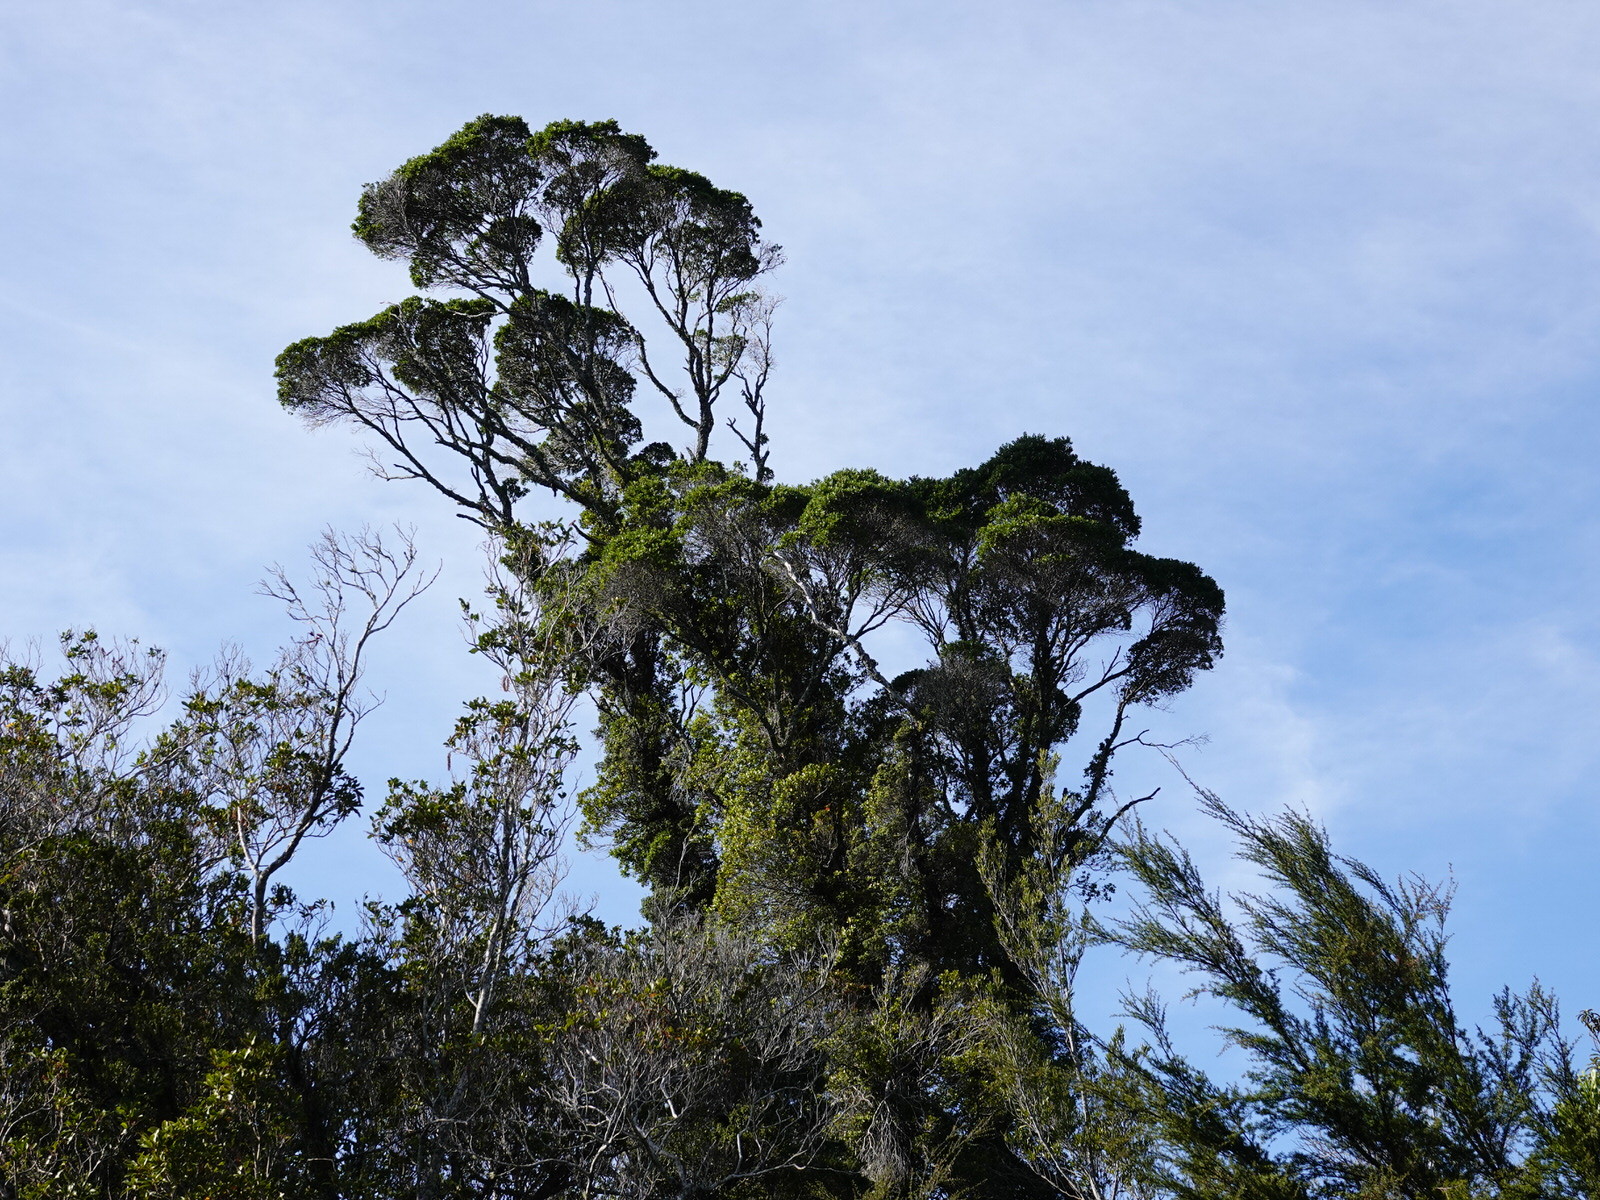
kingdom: Plantae
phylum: Tracheophyta
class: Magnoliopsida
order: Myrtales
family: Myrtaceae
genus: Metrosideros
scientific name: Metrosideros fulgens
